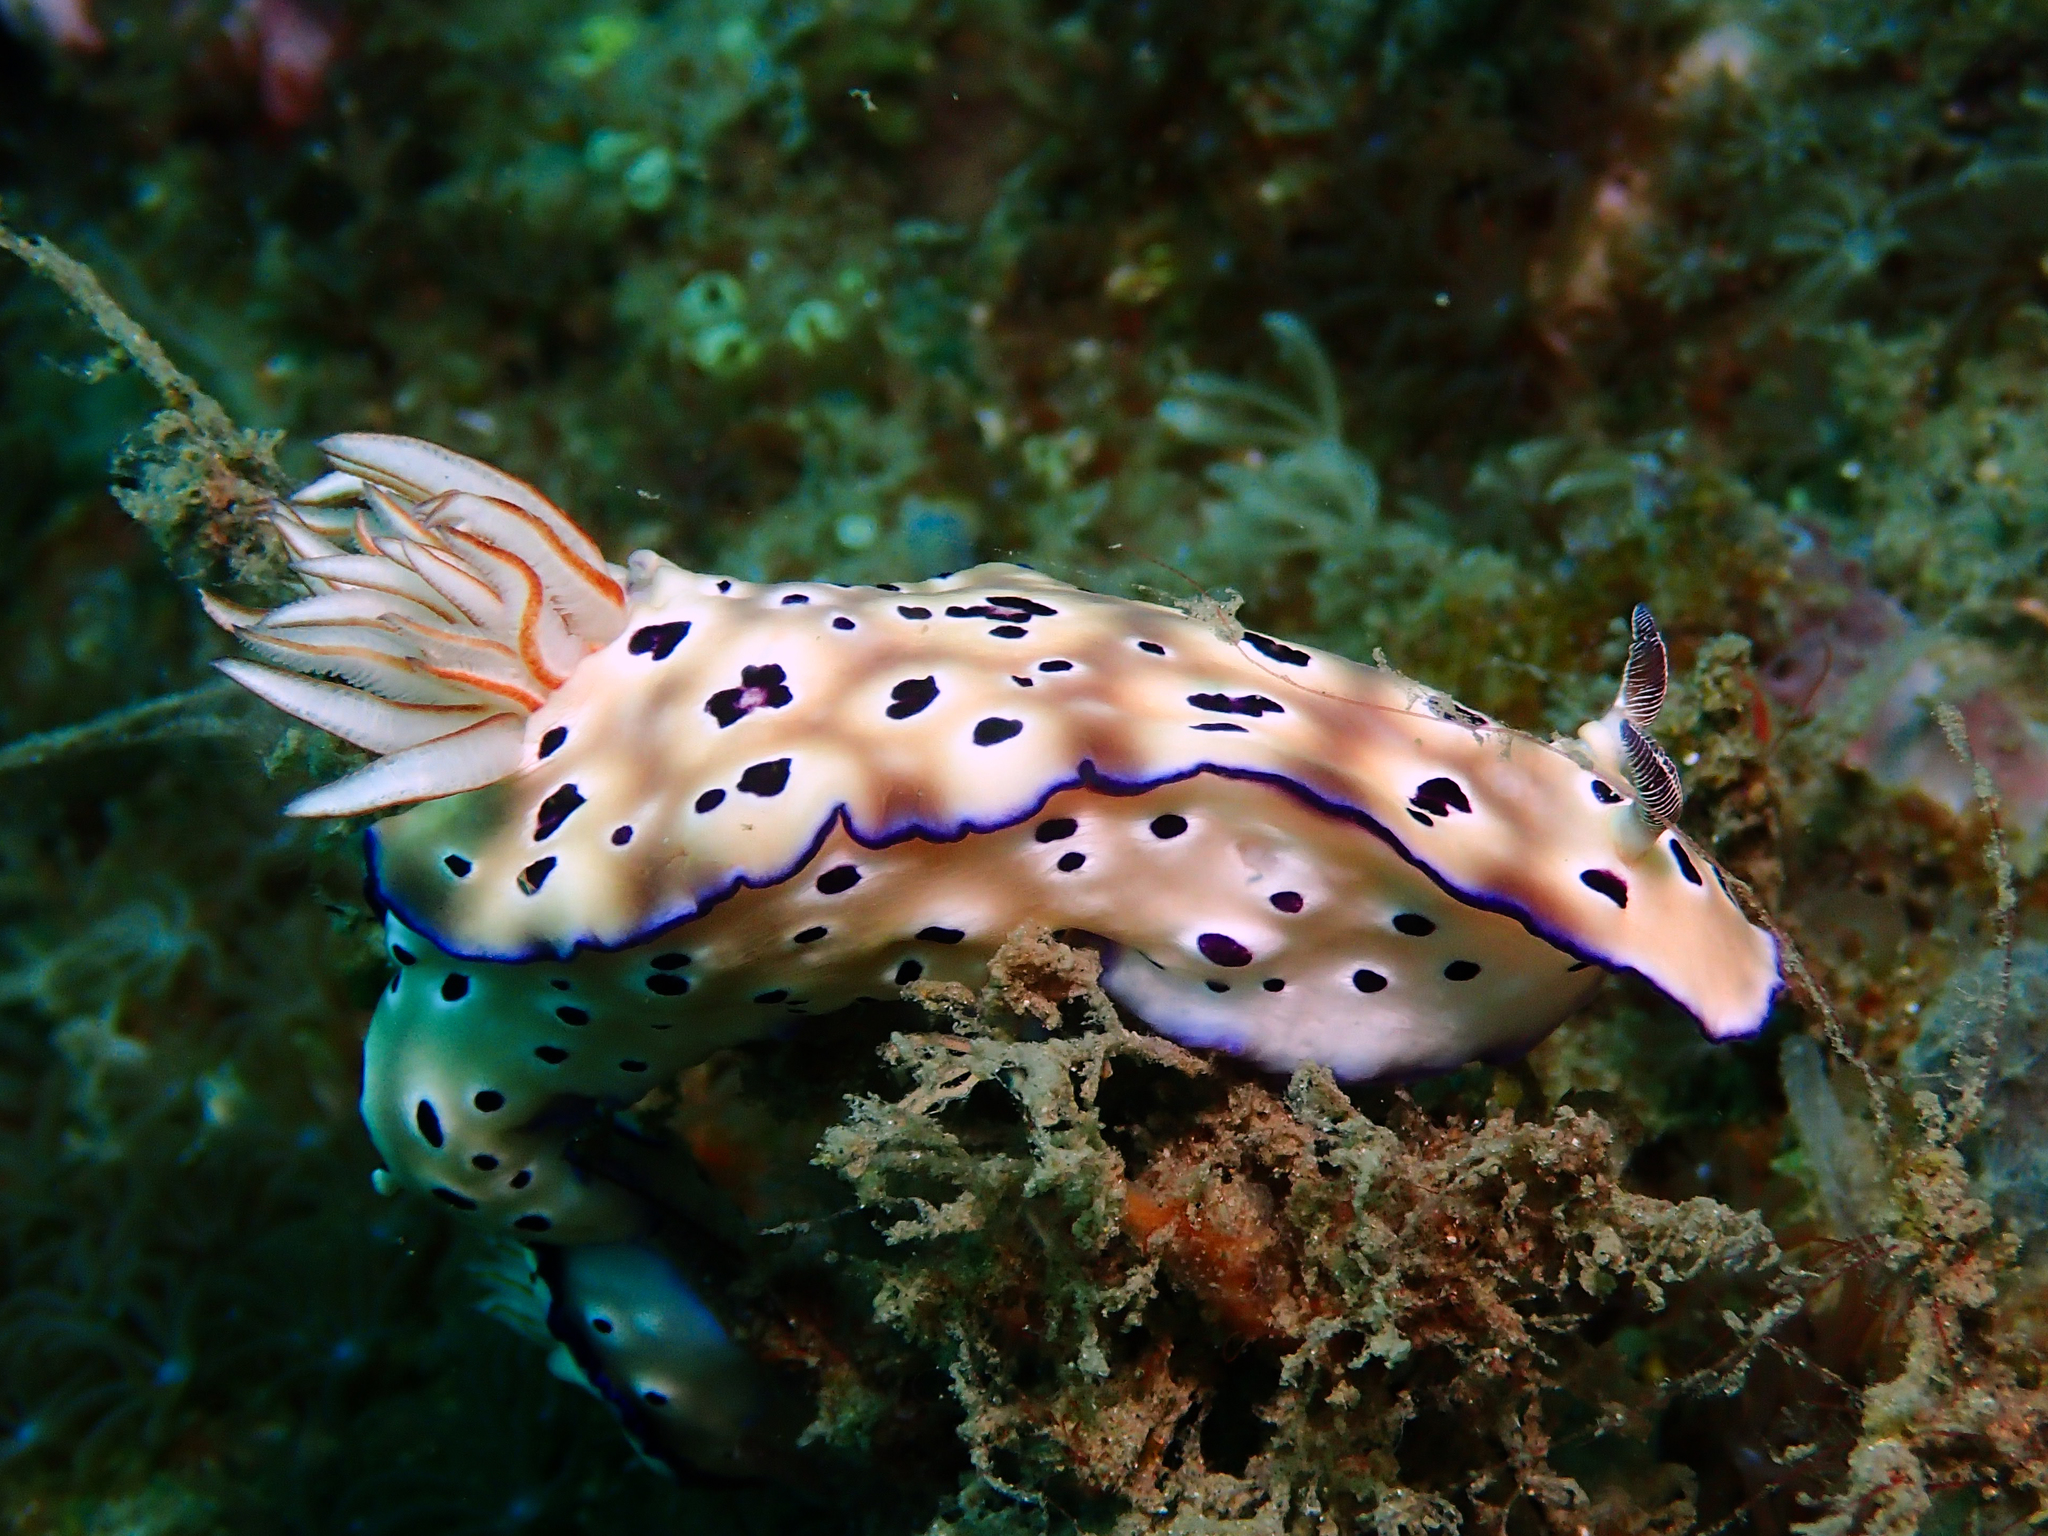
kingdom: Animalia
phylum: Mollusca
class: Gastropoda
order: Nudibranchia
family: Chromodorididae
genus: Hypselodoris
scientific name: Hypselodoris tryoni
